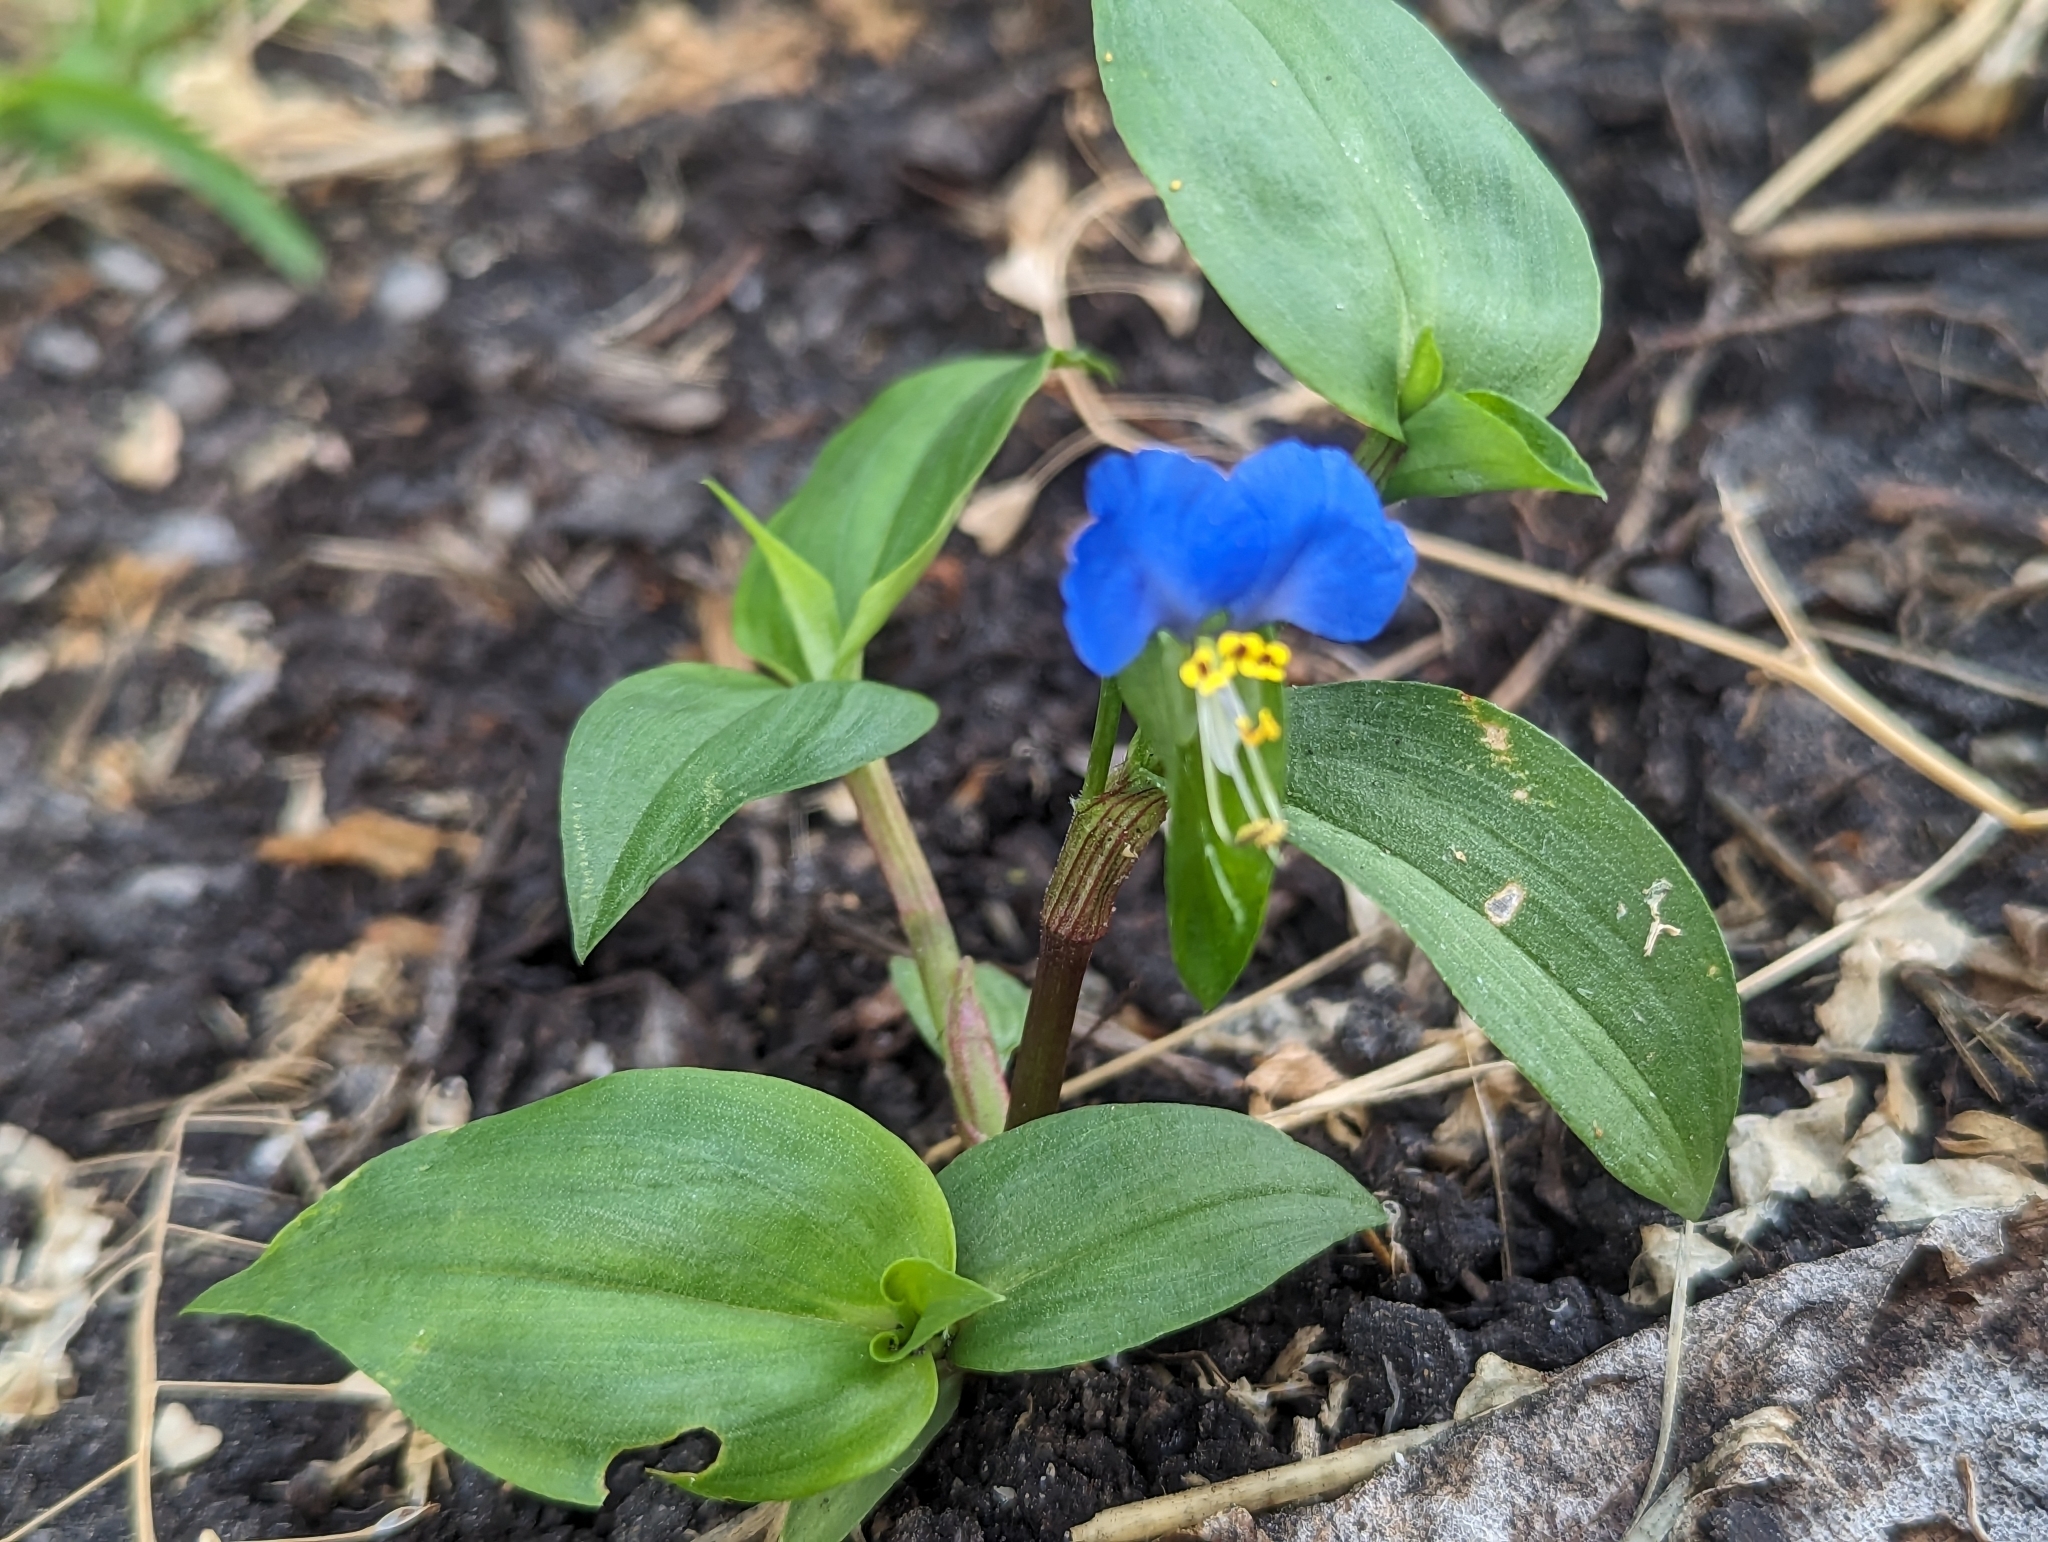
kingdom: Plantae
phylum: Tracheophyta
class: Liliopsida
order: Commelinales
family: Commelinaceae
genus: Commelina
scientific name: Commelina communis
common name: Asiatic dayflower
